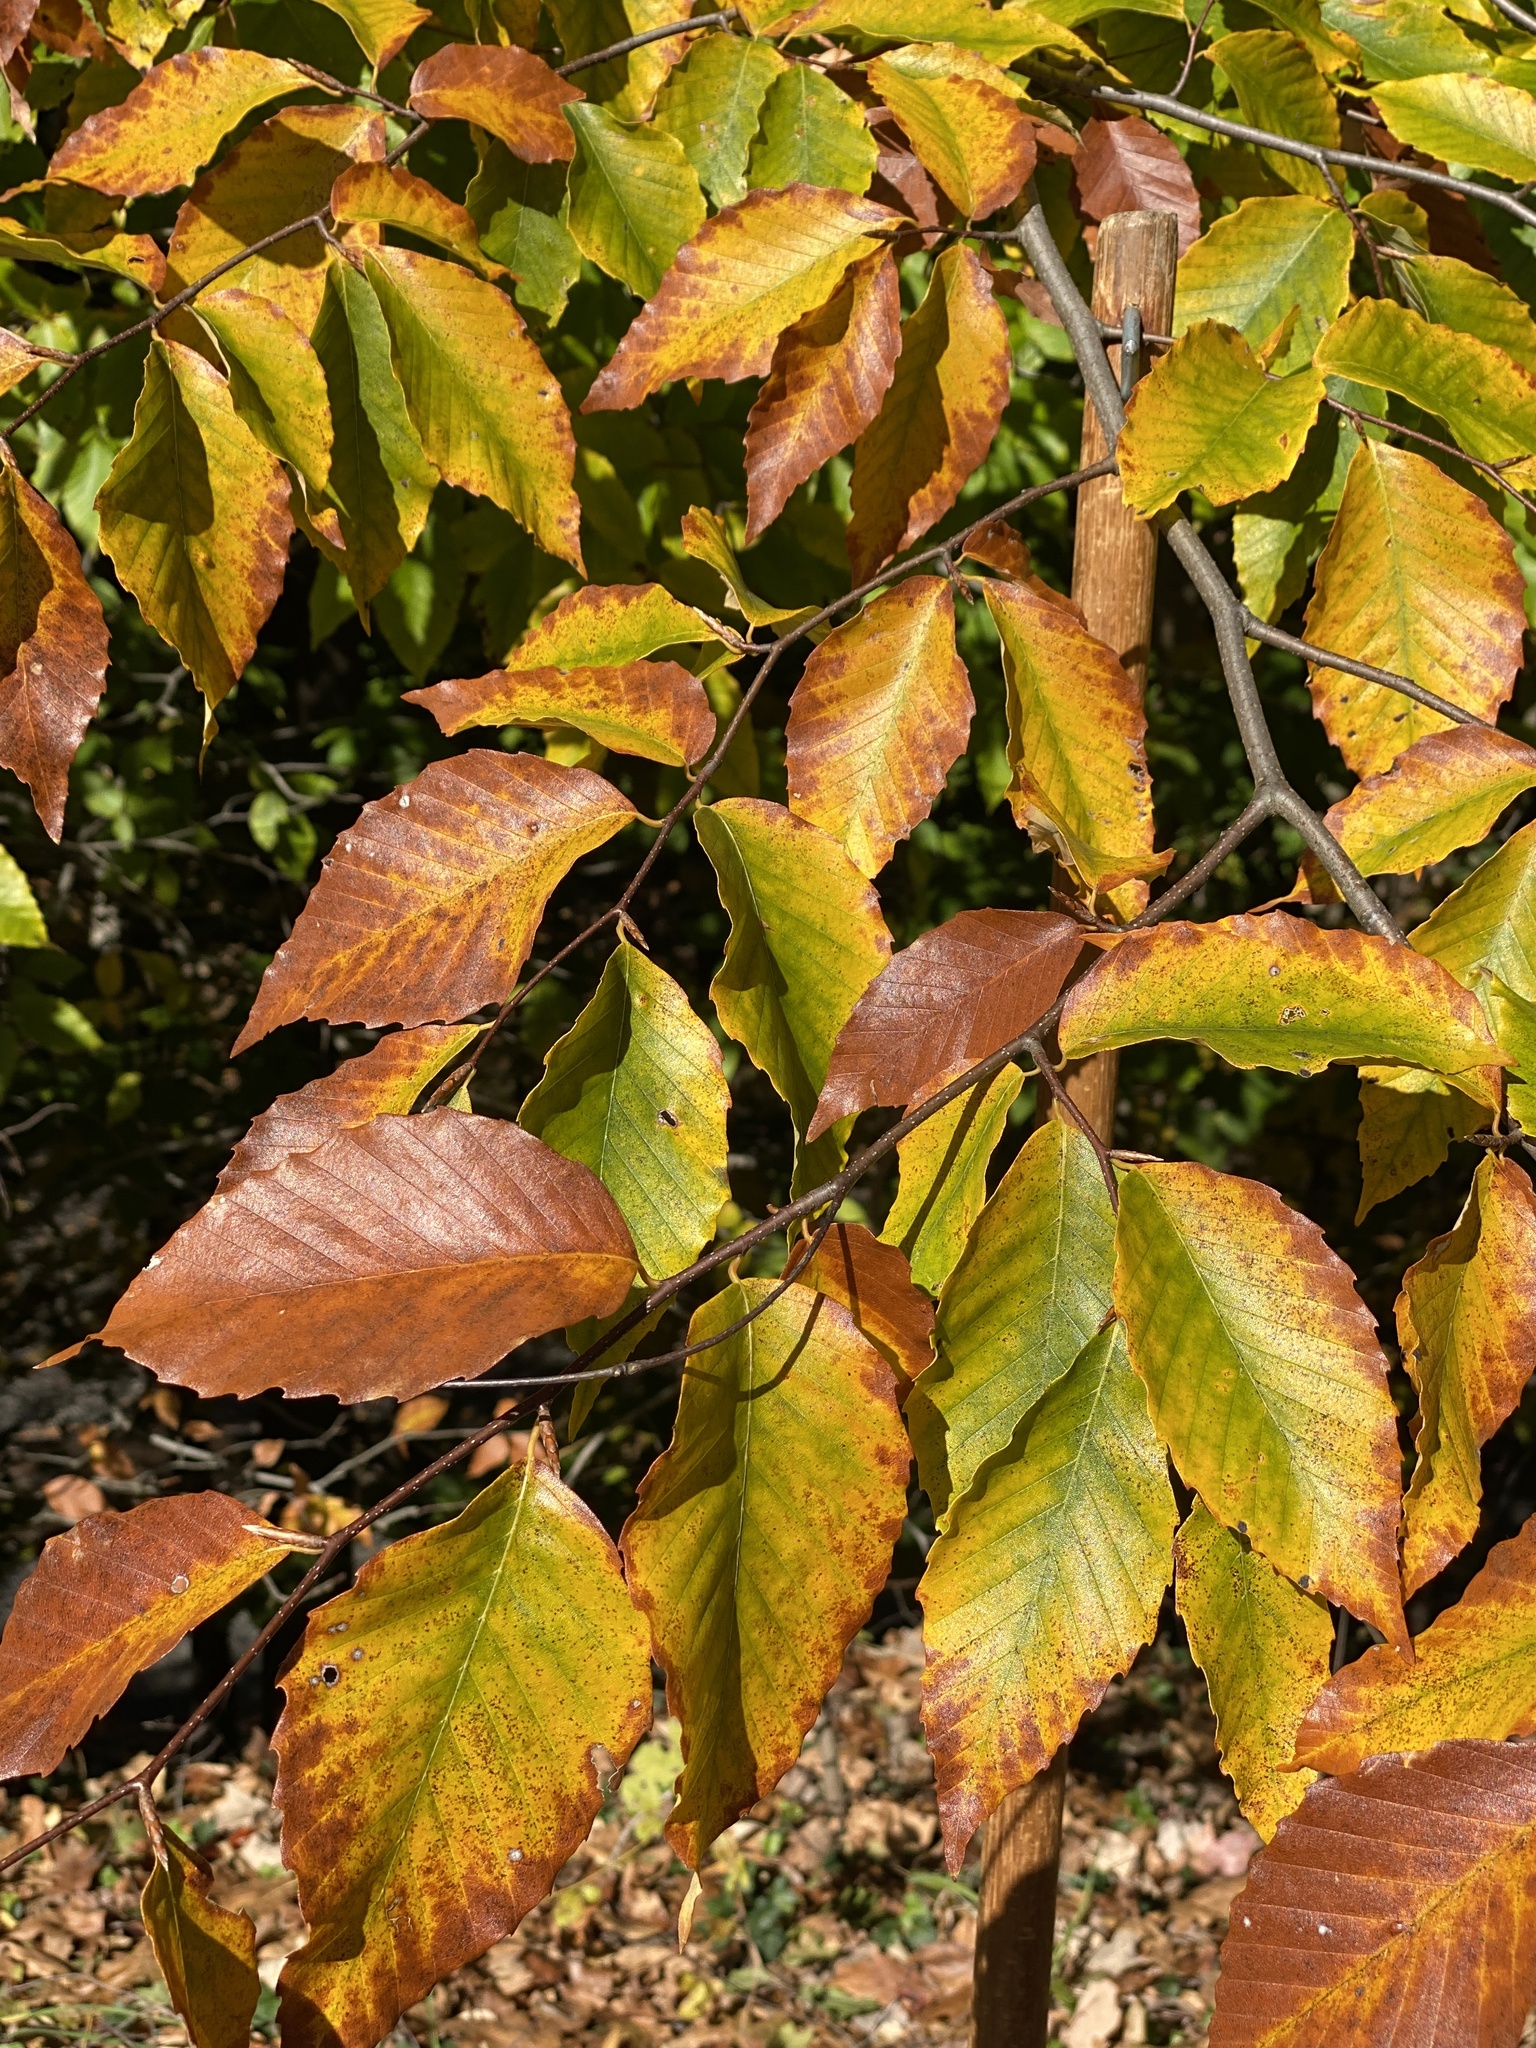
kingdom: Plantae
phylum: Tracheophyta
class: Magnoliopsida
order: Fagales
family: Fagaceae
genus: Fagus
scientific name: Fagus grandifolia
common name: American beech
